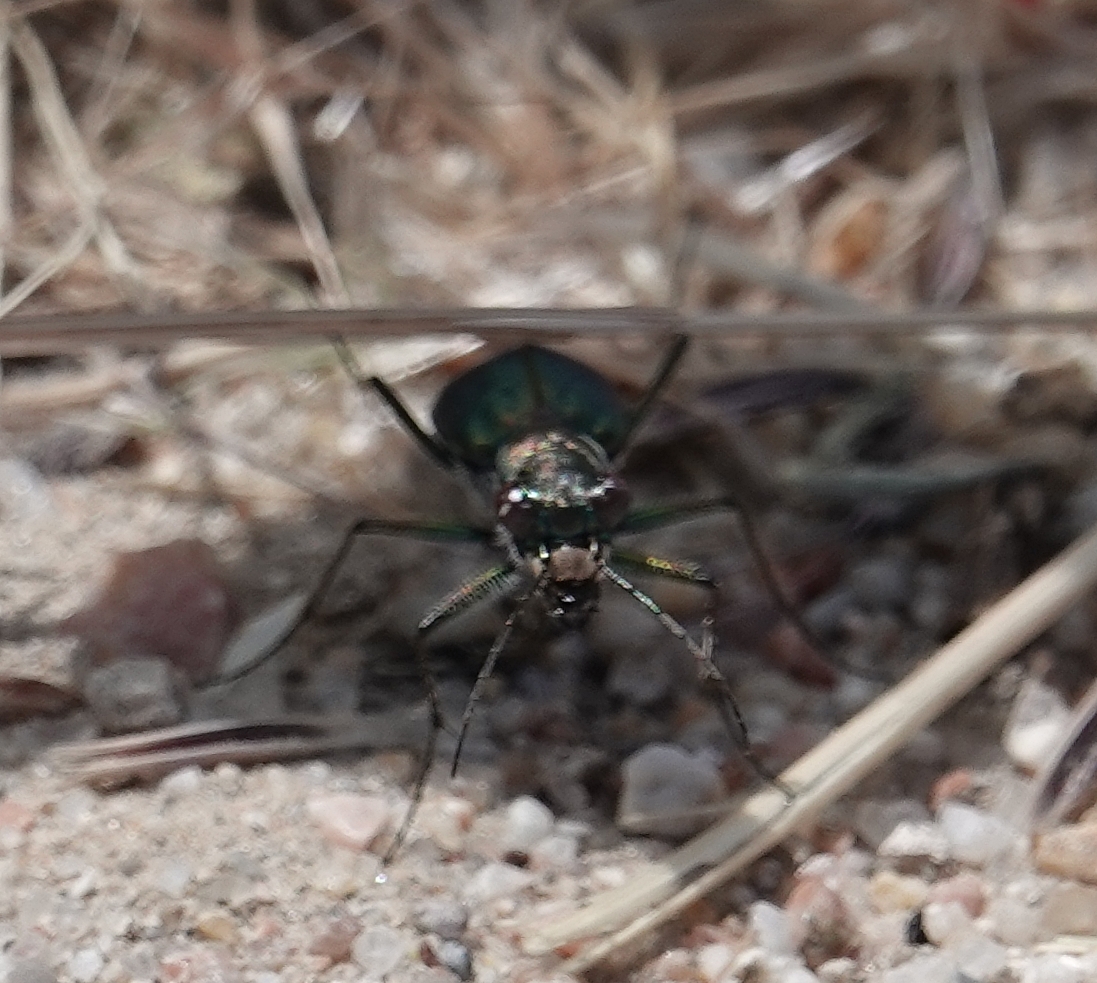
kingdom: Animalia
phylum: Arthropoda
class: Insecta
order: Coleoptera
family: Carabidae
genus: Cicindela
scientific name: Cicindela punctulata
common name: Punctured tiger beetle
